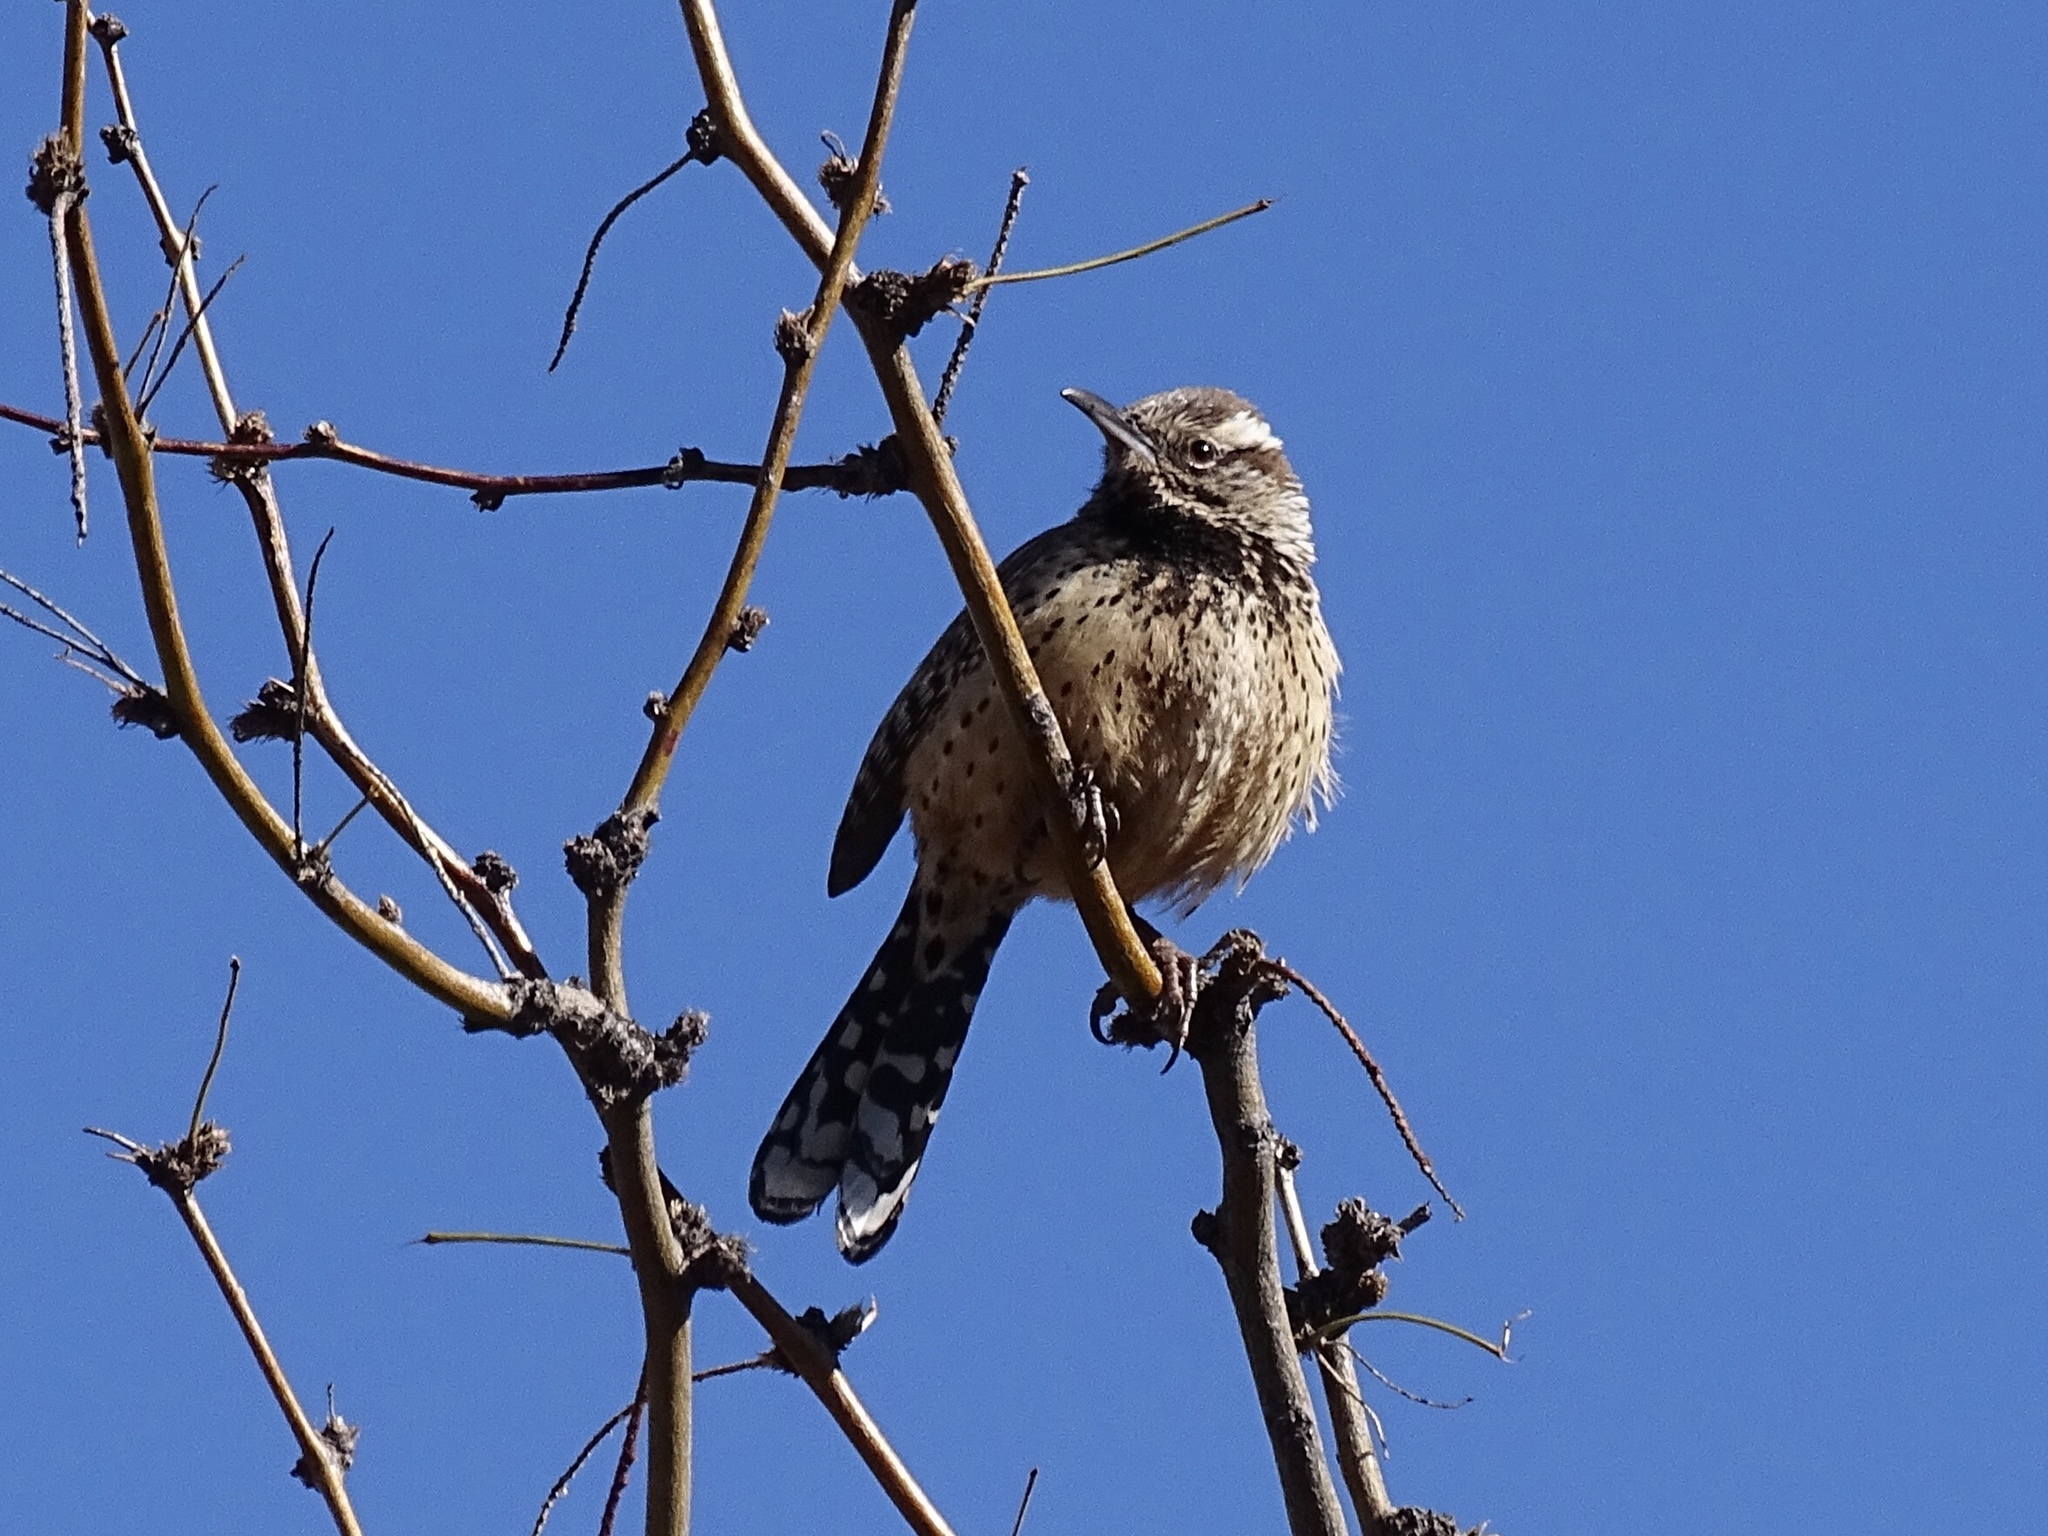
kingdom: Animalia
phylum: Chordata
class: Aves
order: Passeriformes
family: Troglodytidae
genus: Campylorhynchus
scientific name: Campylorhynchus brunneicapillus
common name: Cactus wren
